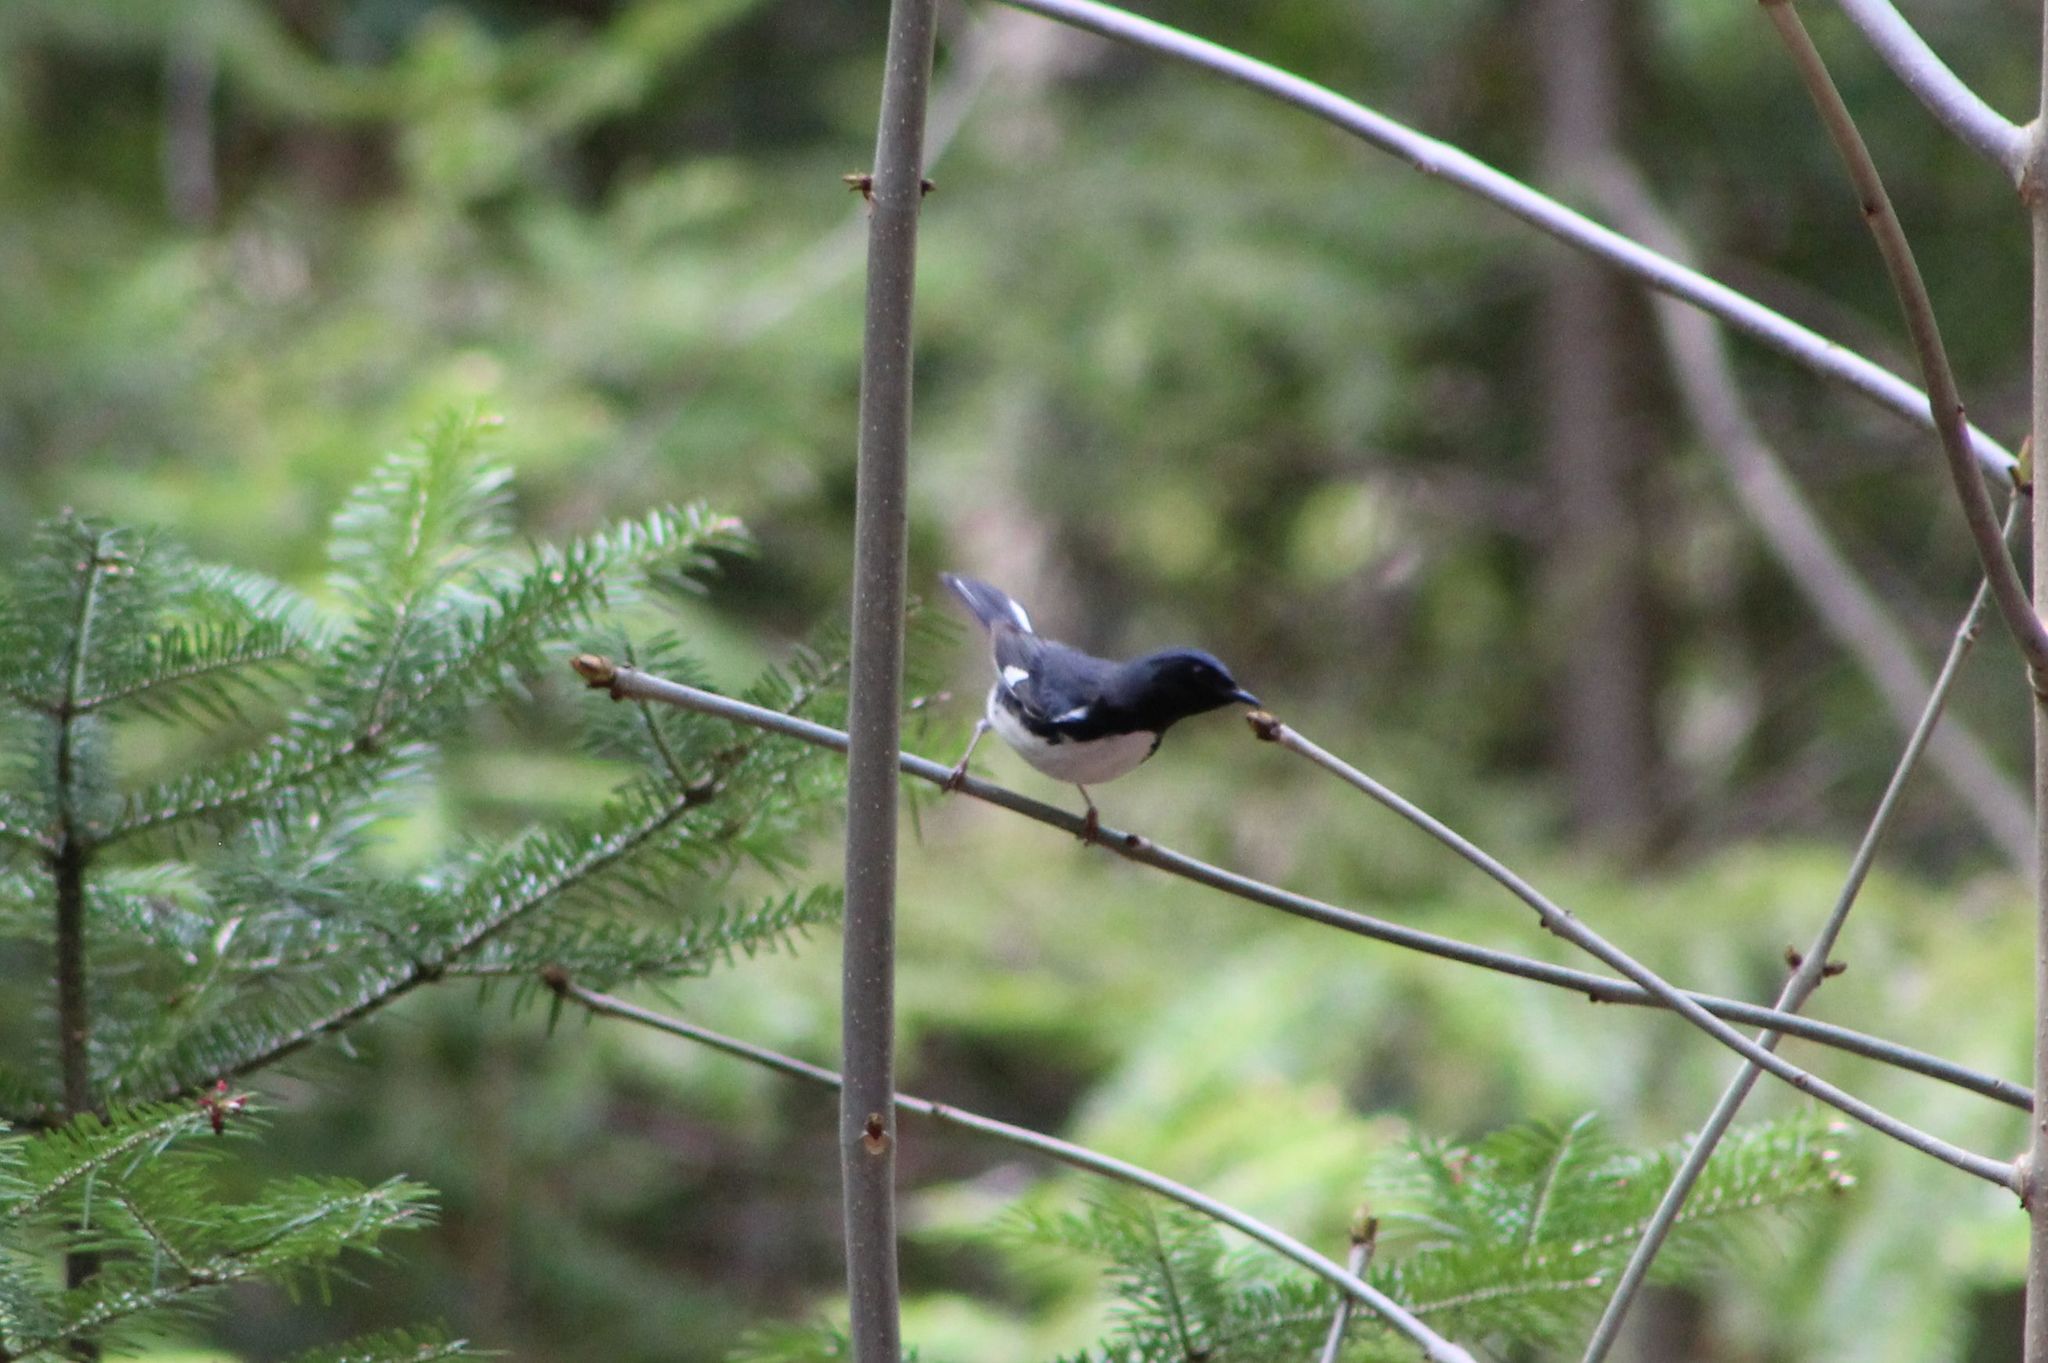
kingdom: Animalia
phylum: Chordata
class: Aves
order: Passeriformes
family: Parulidae
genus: Setophaga
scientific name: Setophaga caerulescens
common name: Black-throated blue warbler
